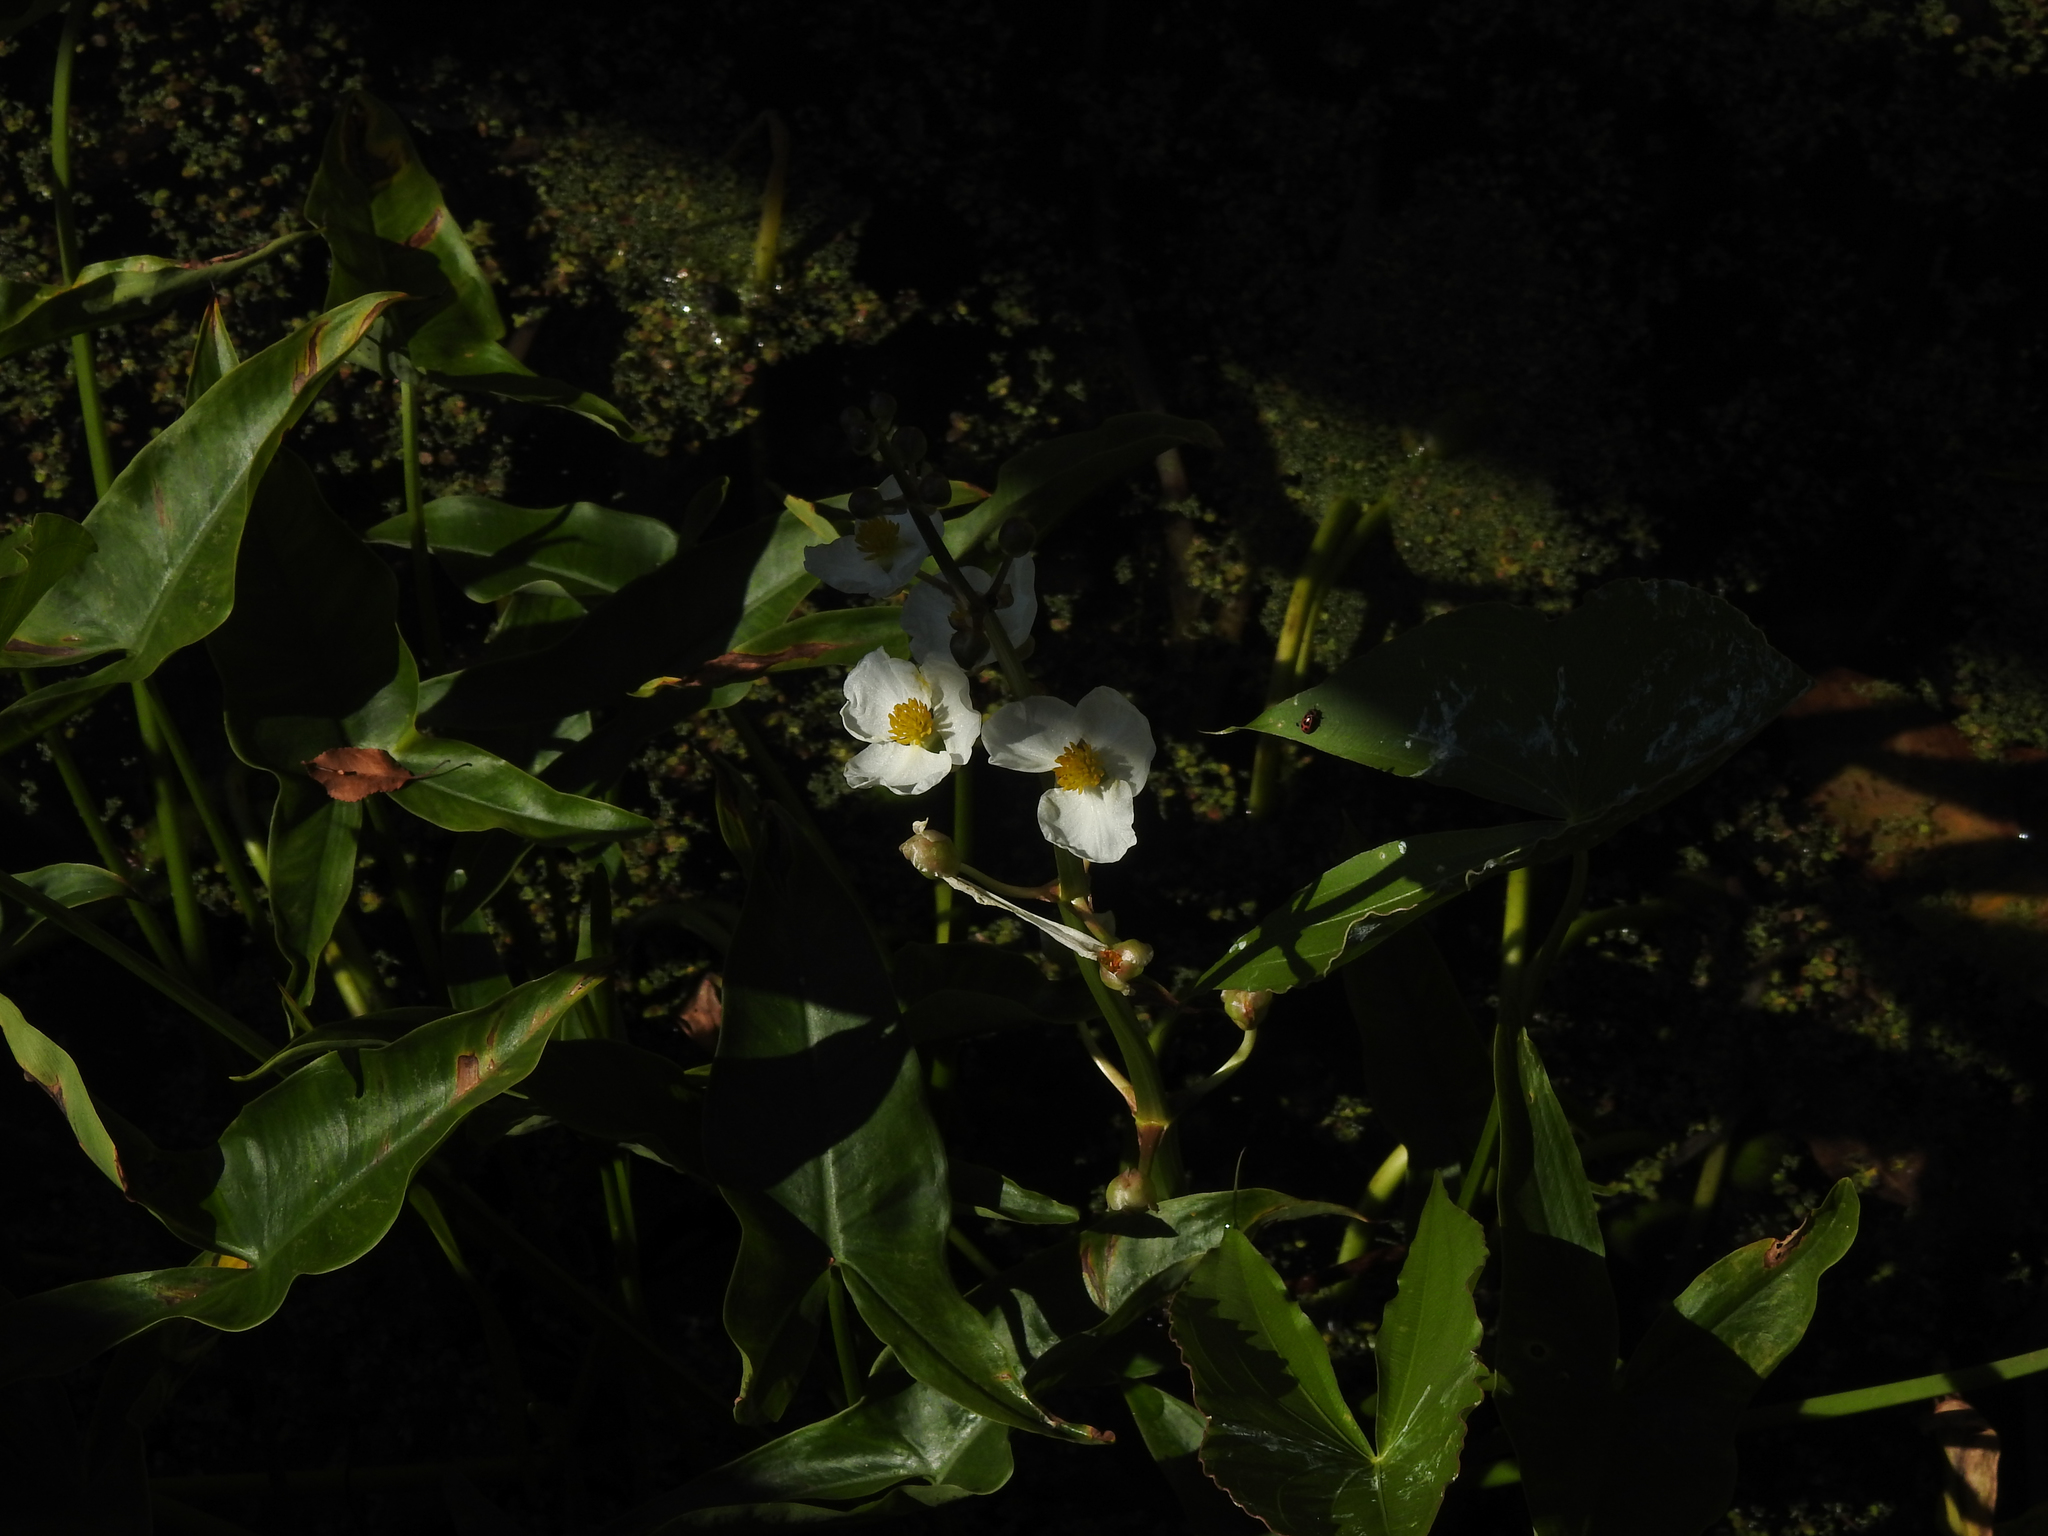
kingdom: Plantae
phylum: Tracheophyta
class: Liliopsida
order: Alismatales
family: Alismataceae
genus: Sagittaria
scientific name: Sagittaria latifolia
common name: Duck-potato
